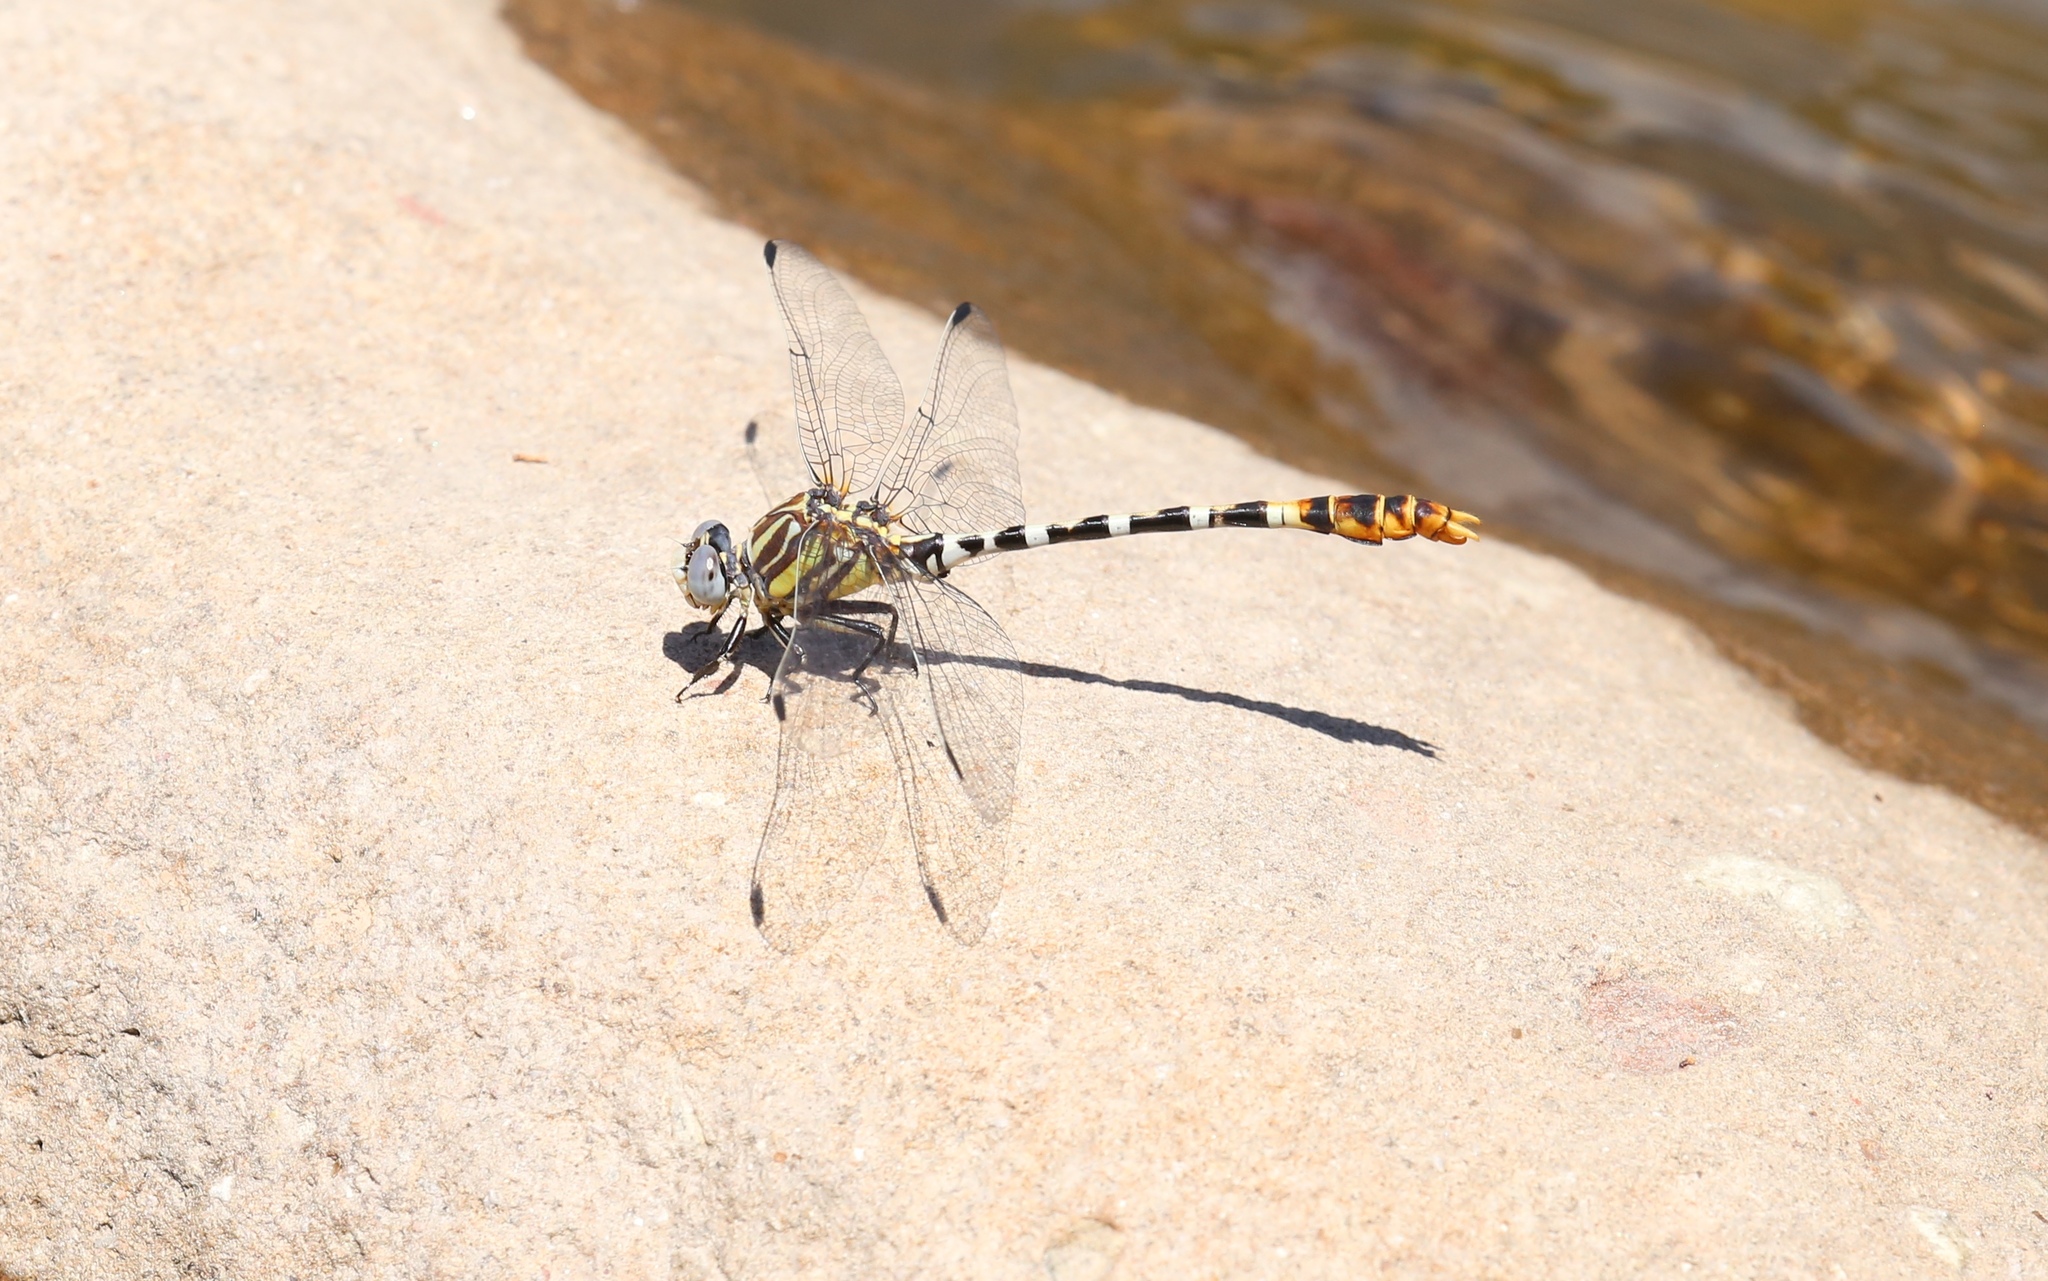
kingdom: Animalia
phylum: Arthropoda
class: Insecta
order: Odonata
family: Gomphidae
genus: Erpetogomphus
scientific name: Erpetogomphus compositus
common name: White-belted ringtail
